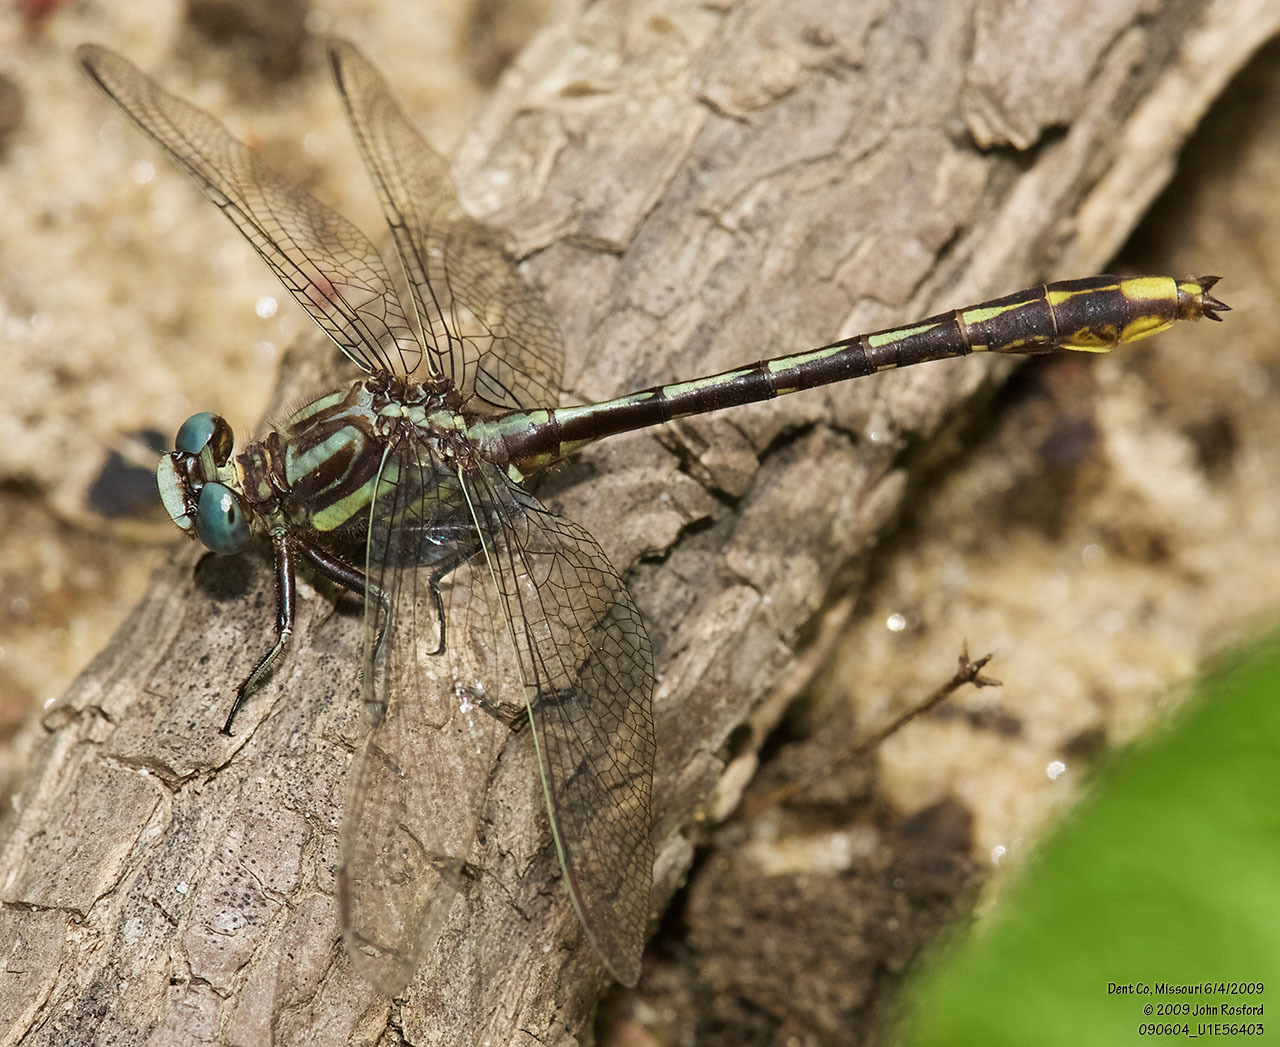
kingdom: Animalia
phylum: Arthropoda
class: Insecta
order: Odonata
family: Gomphidae
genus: Phanogomphus
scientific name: Phanogomphus exilis
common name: Lancet clubtail
